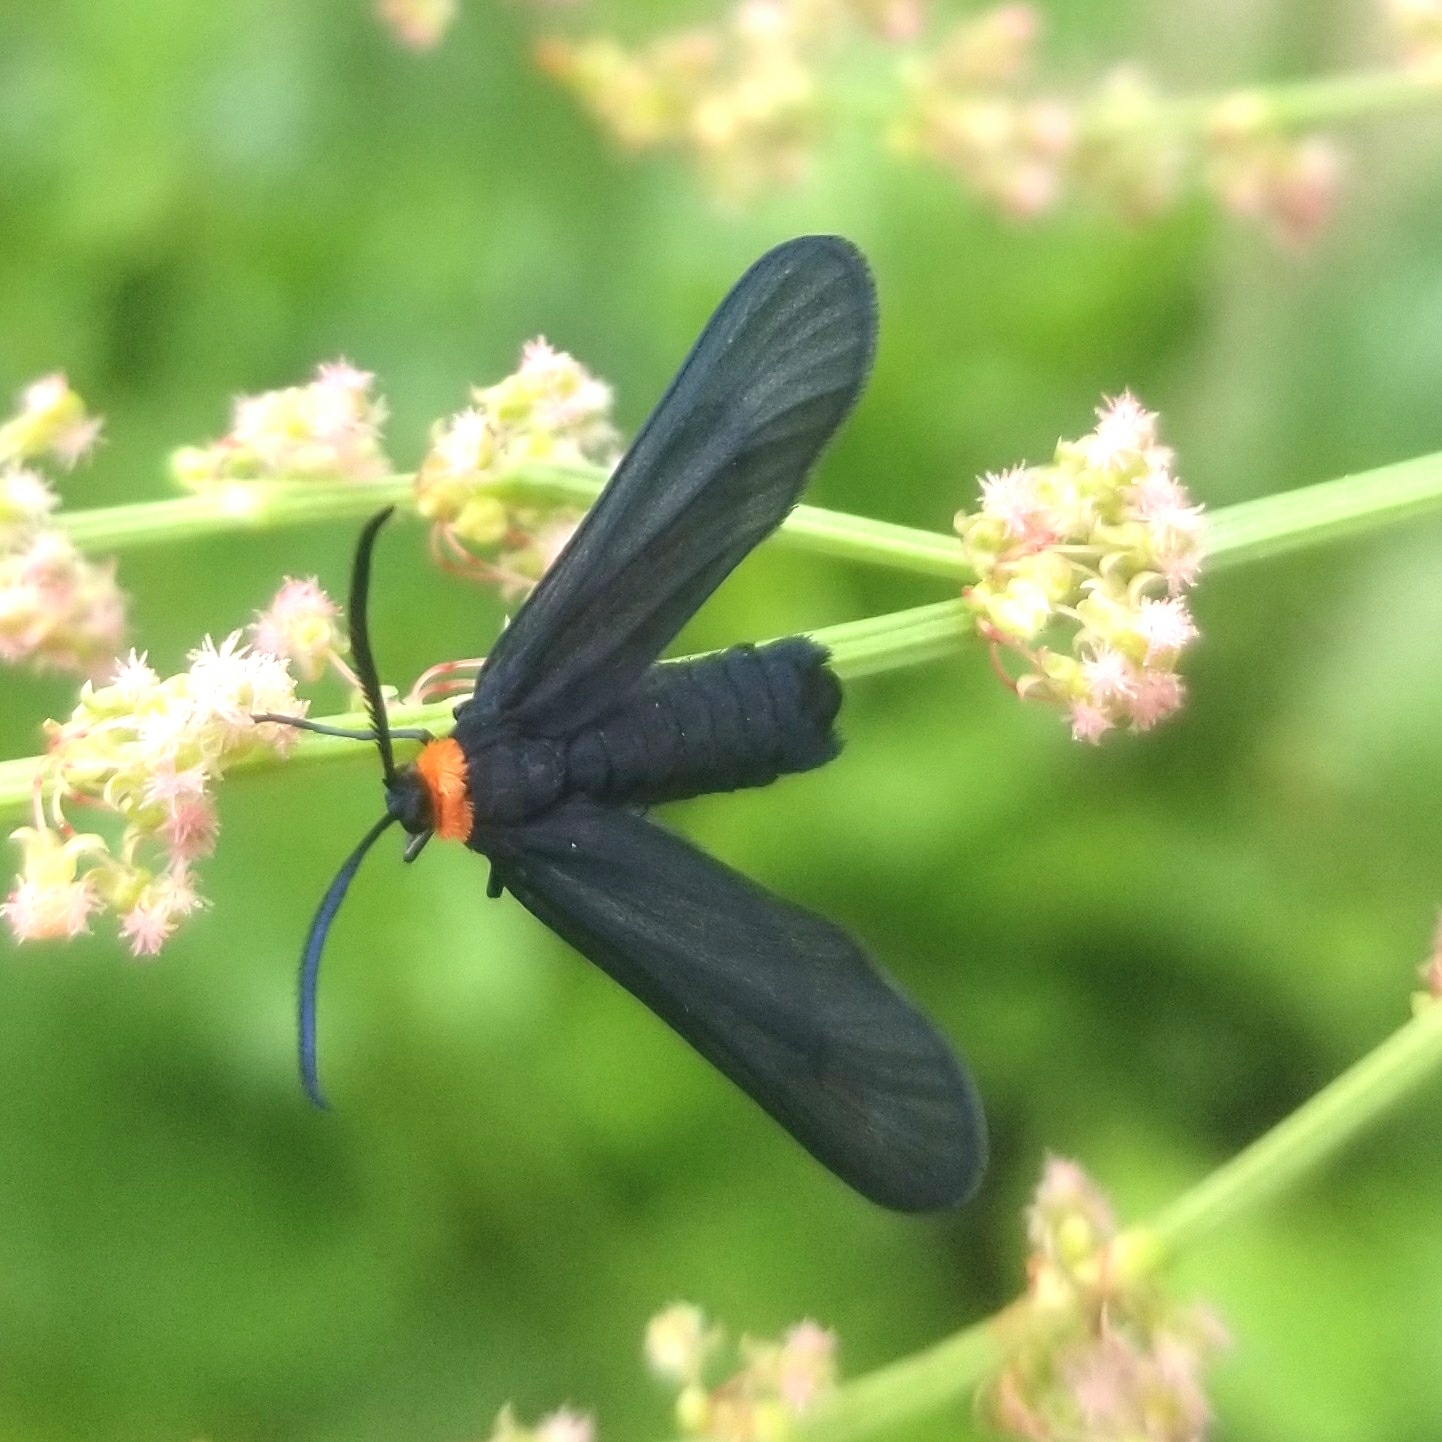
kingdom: Animalia
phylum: Arthropoda
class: Insecta
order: Lepidoptera
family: Zygaenidae
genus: Harrisina
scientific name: Harrisina americana
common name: Grapeleaf skeletonizer moth
